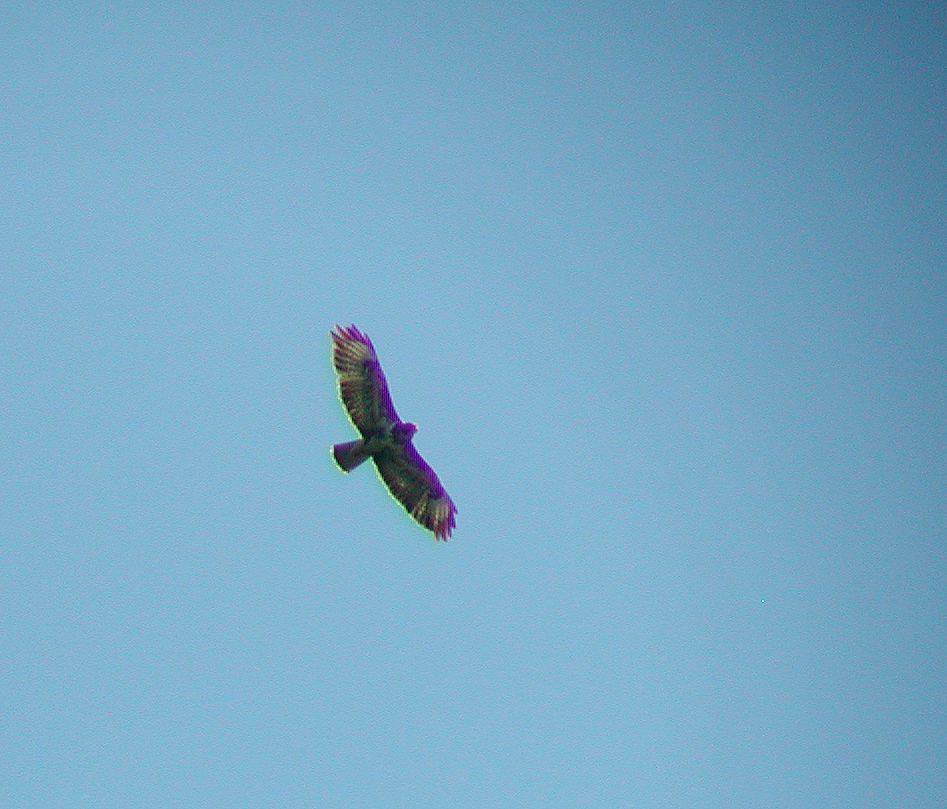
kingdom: Animalia
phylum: Chordata
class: Aves
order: Accipitriformes
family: Accipitridae
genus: Buteo
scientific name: Buteo buteo
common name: Common buzzard
